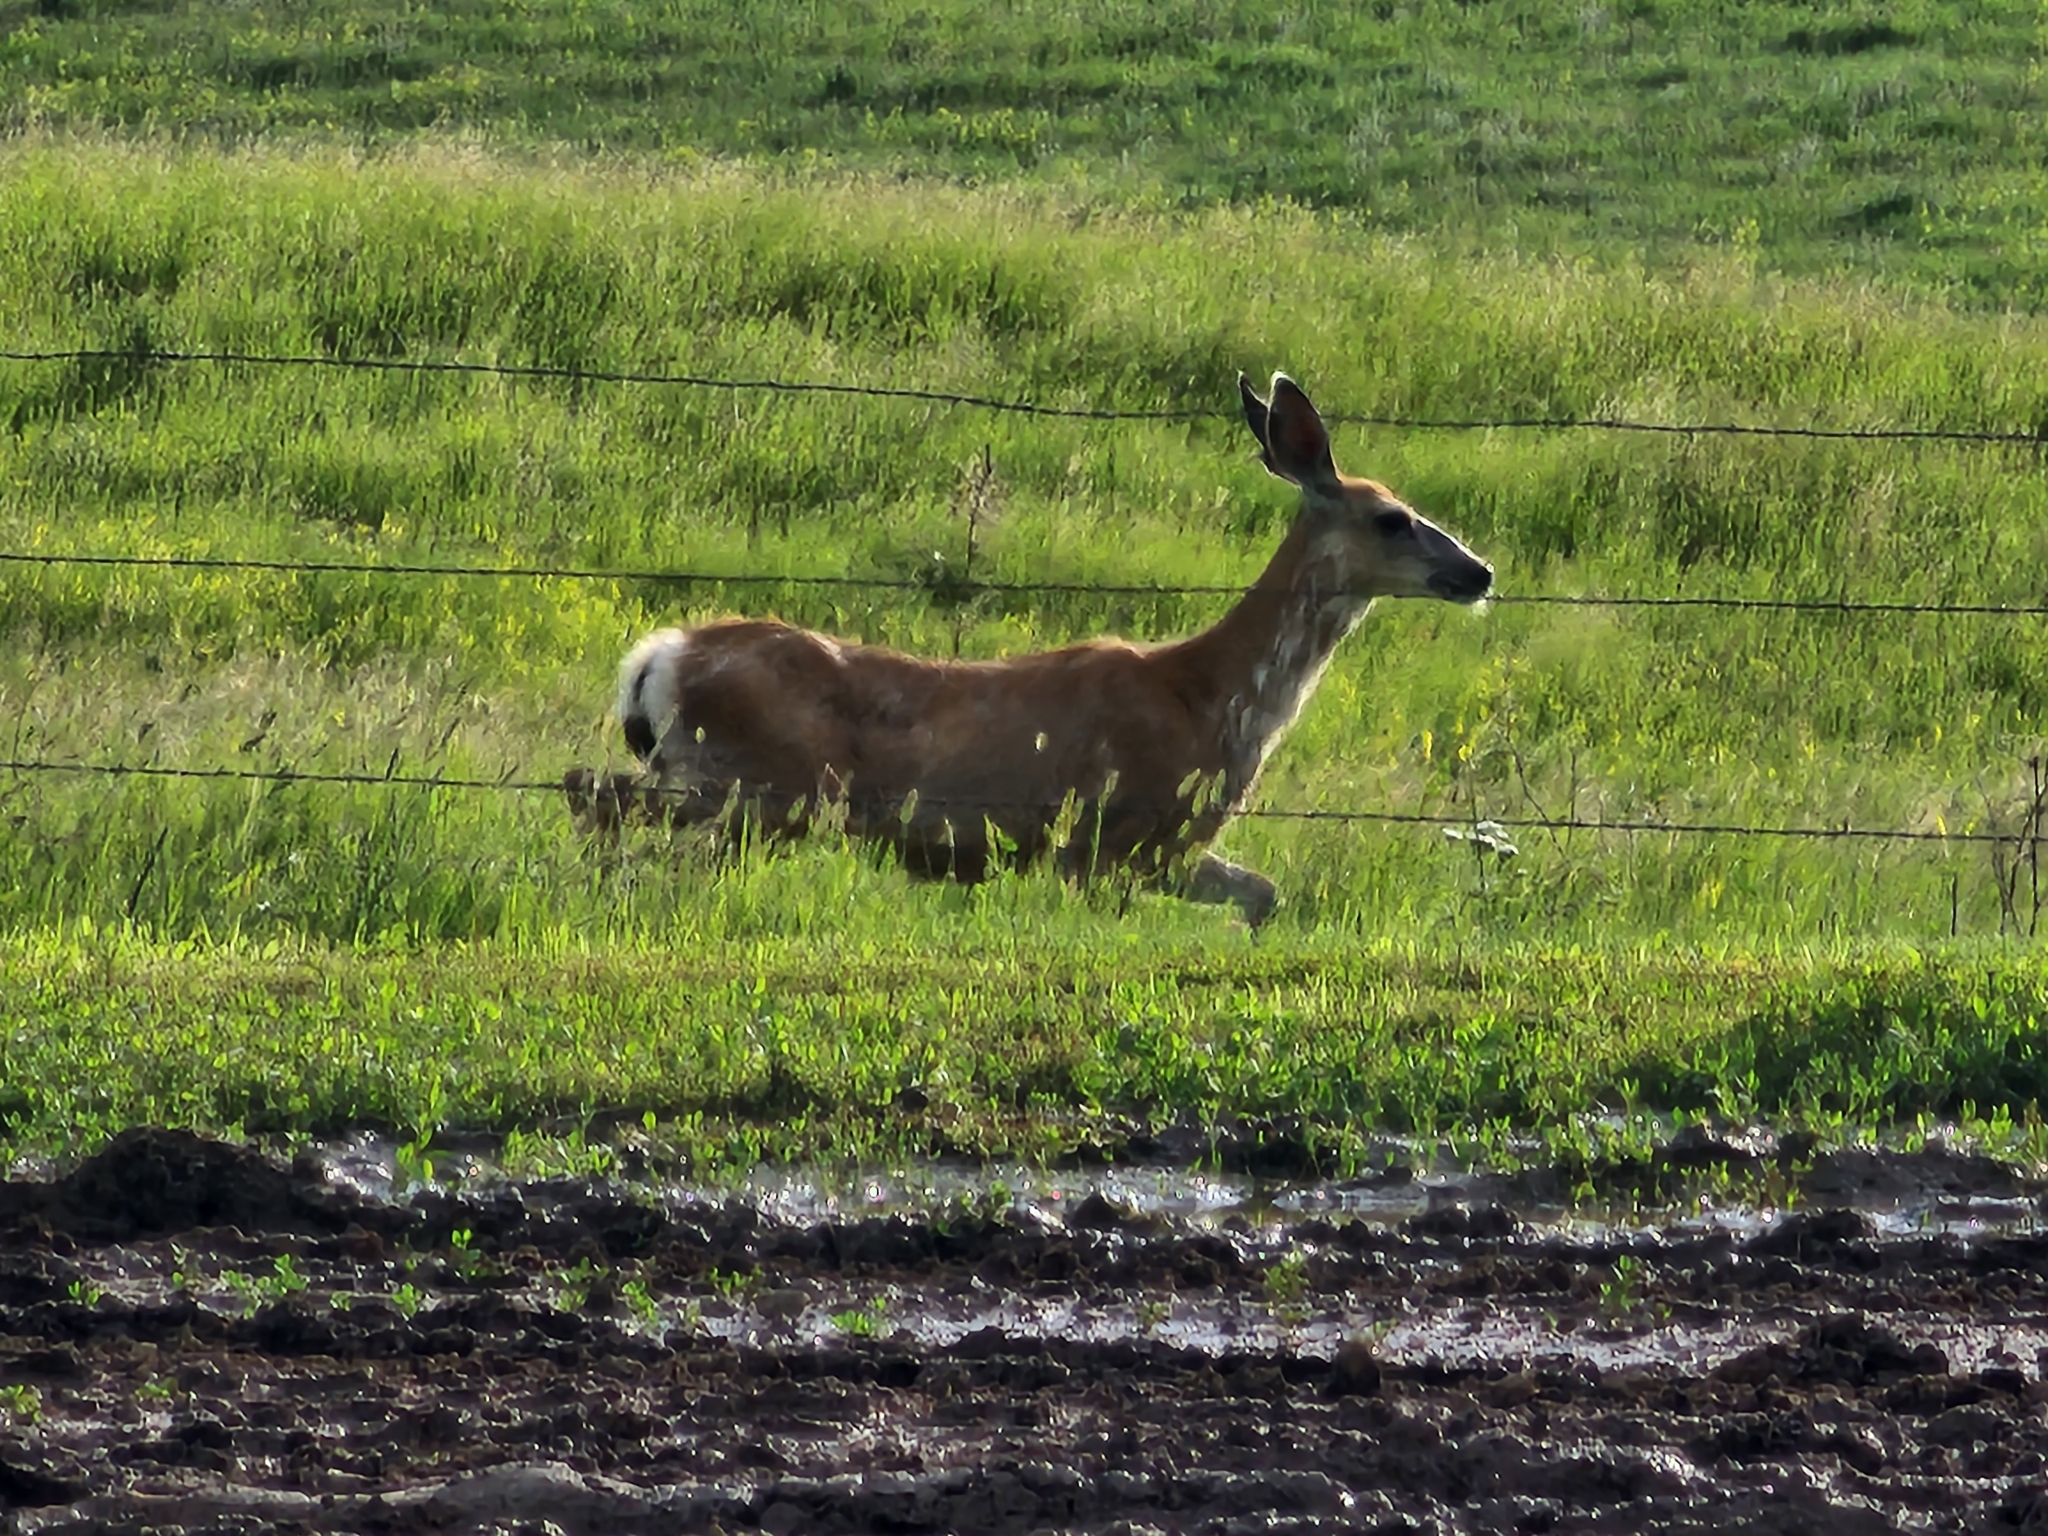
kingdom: Animalia
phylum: Chordata
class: Mammalia
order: Artiodactyla
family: Cervidae
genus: Odocoileus
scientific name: Odocoileus hemionus
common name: Mule deer
